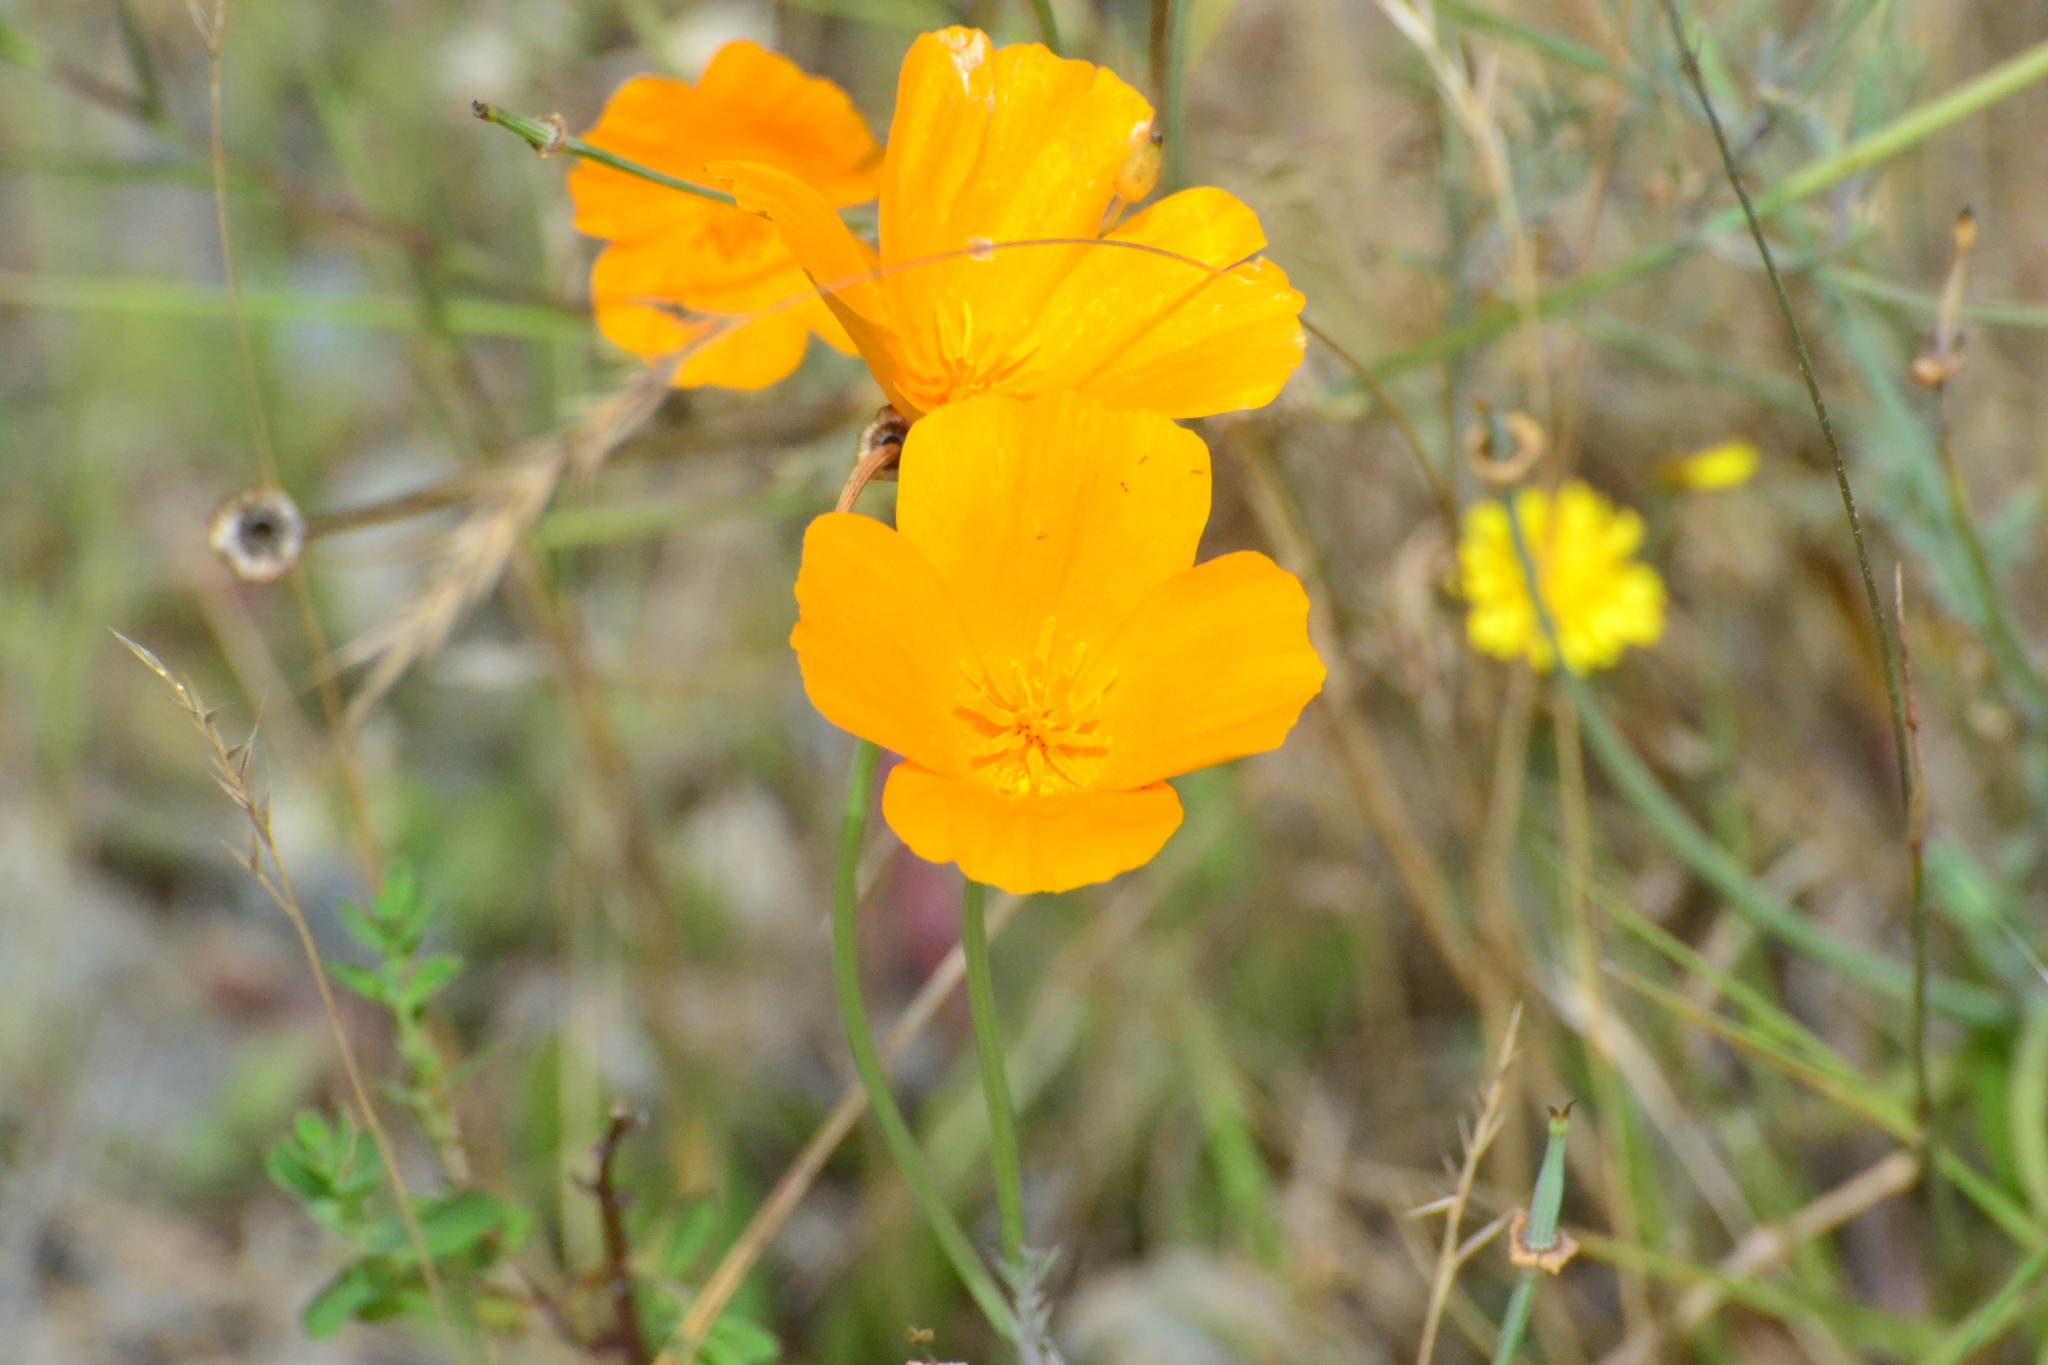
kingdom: Plantae
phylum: Tracheophyta
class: Magnoliopsida
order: Ranunculales
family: Papaveraceae
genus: Eschscholzia
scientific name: Eschscholzia californica
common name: California poppy
